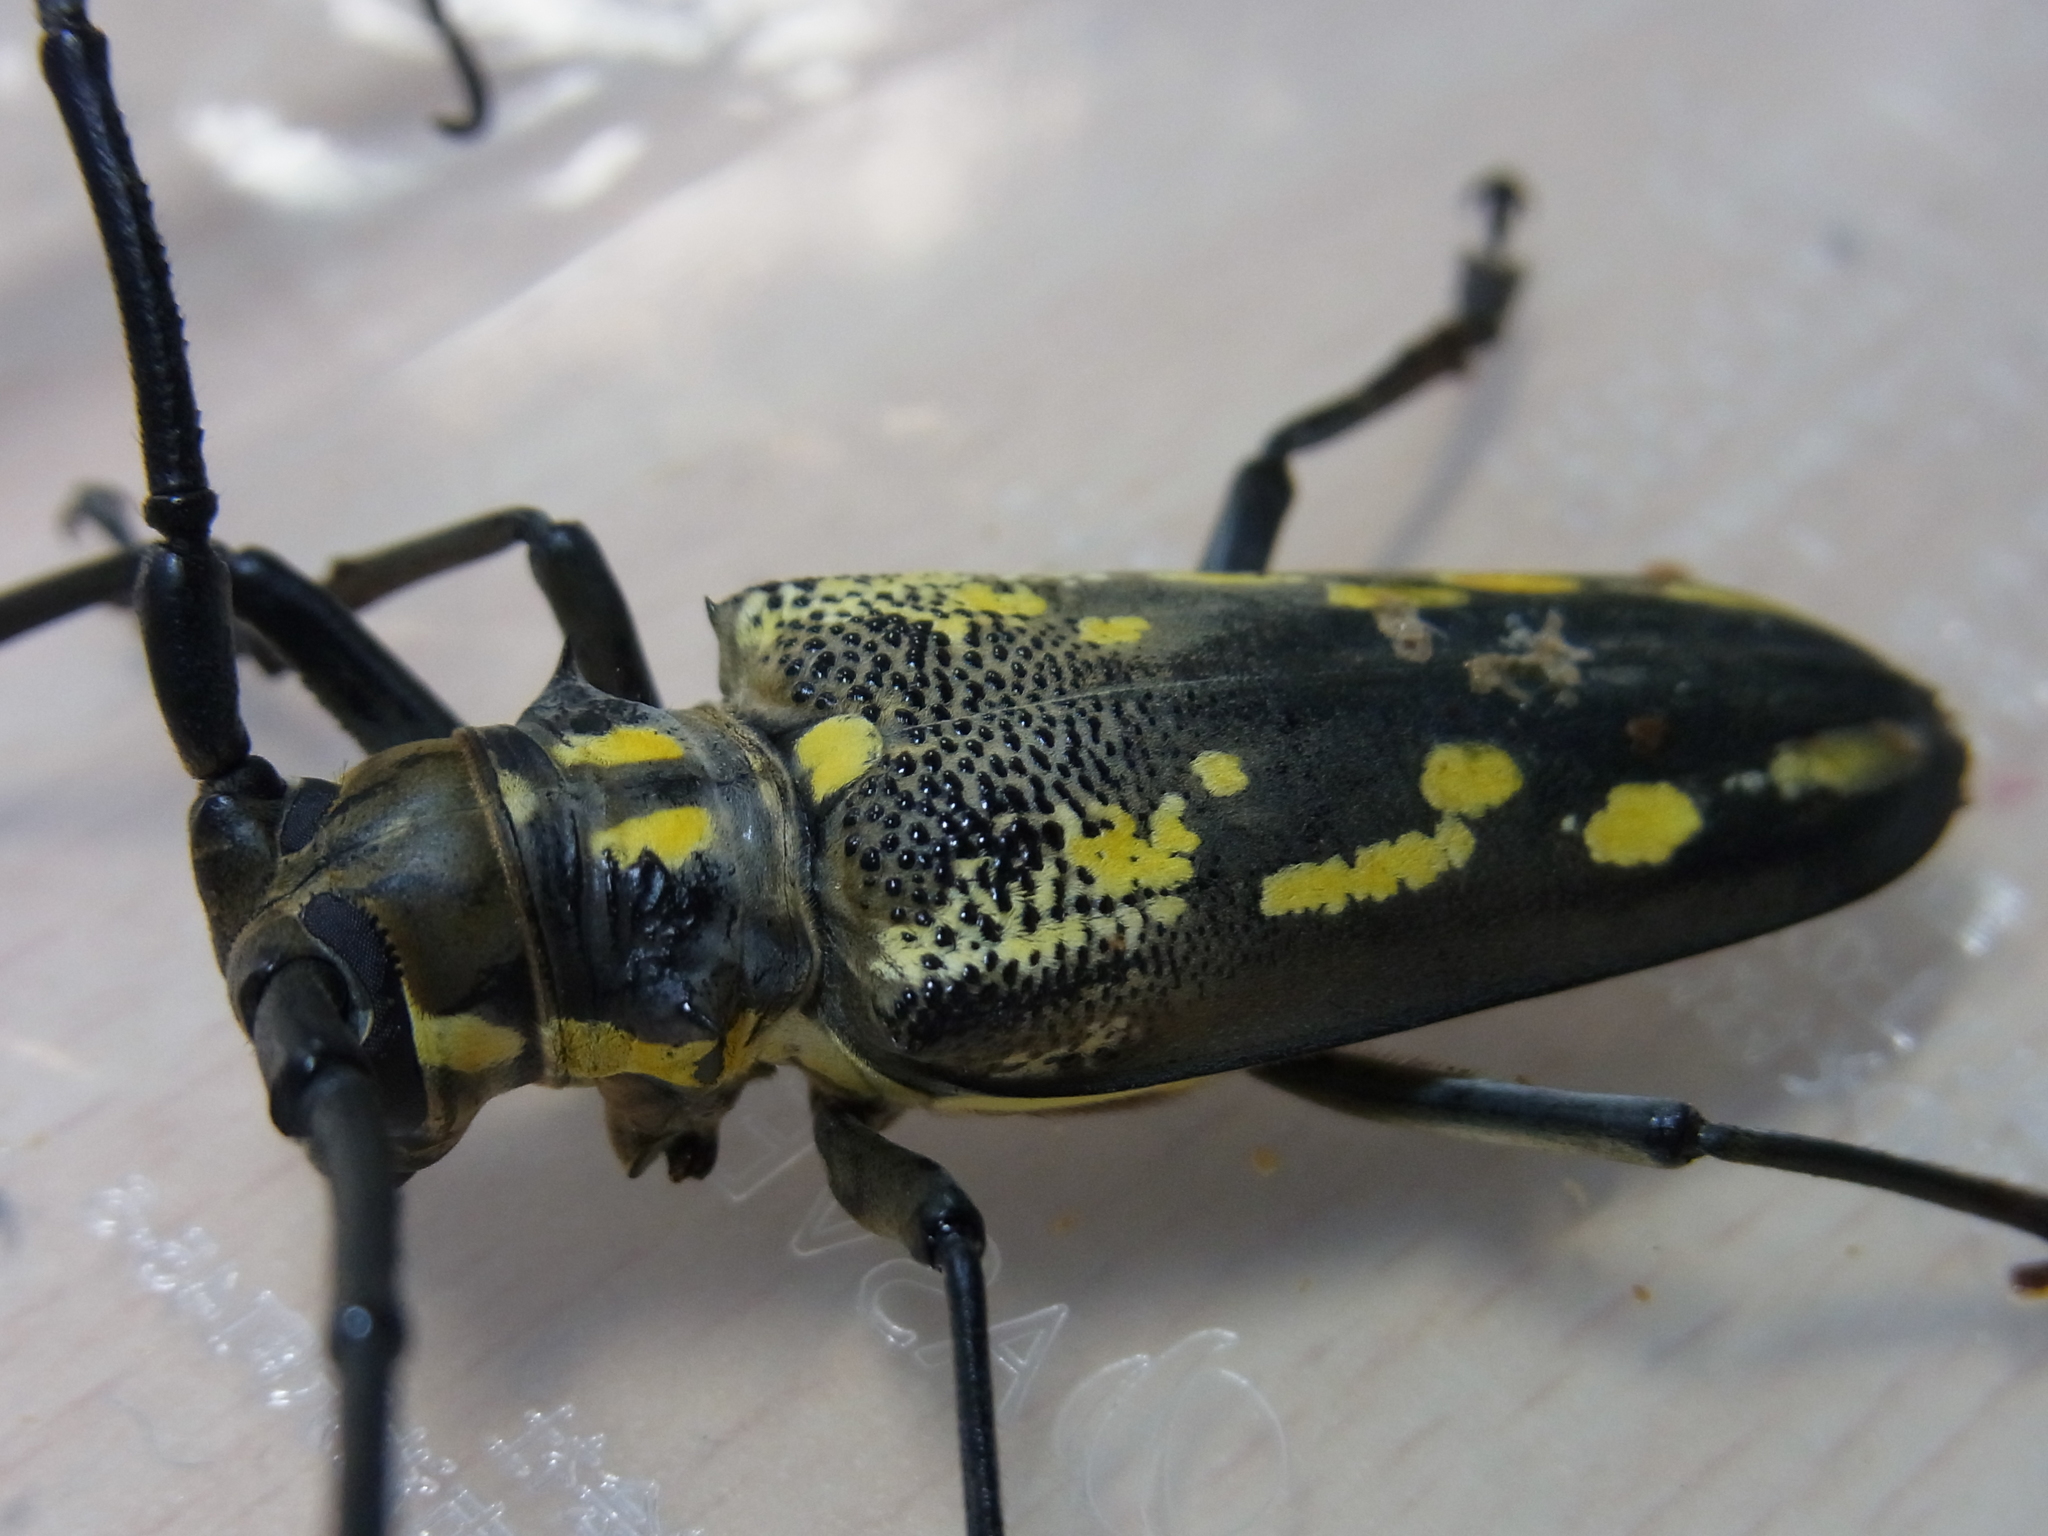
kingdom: Animalia
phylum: Arthropoda
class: Insecta
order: Coleoptera
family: Cerambycidae
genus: Batocera
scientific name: Batocera lineolata
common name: Whitestriped long-horned beetle
